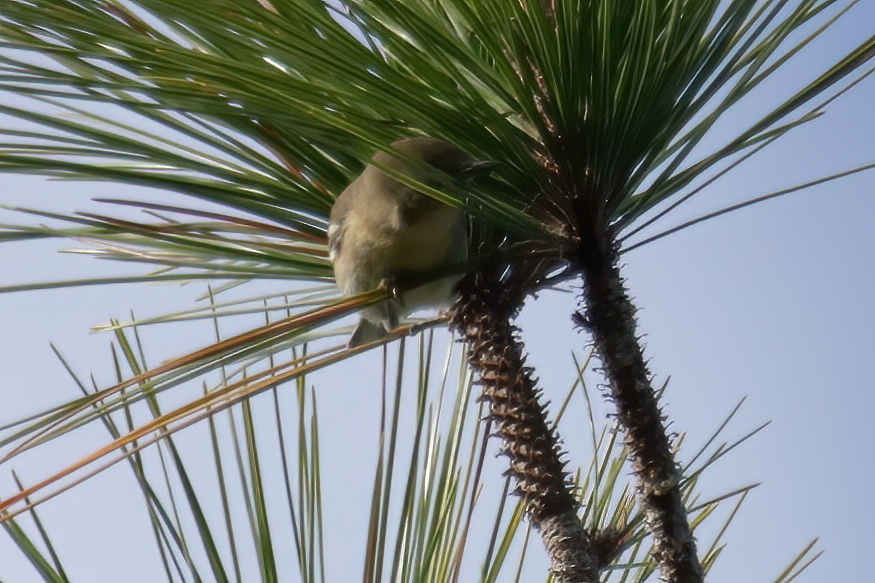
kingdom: Animalia
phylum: Chordata
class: Aves
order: Passeriformes
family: Parulidae
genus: Setophaga
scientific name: Setophaga pinus
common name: Pine warbler
